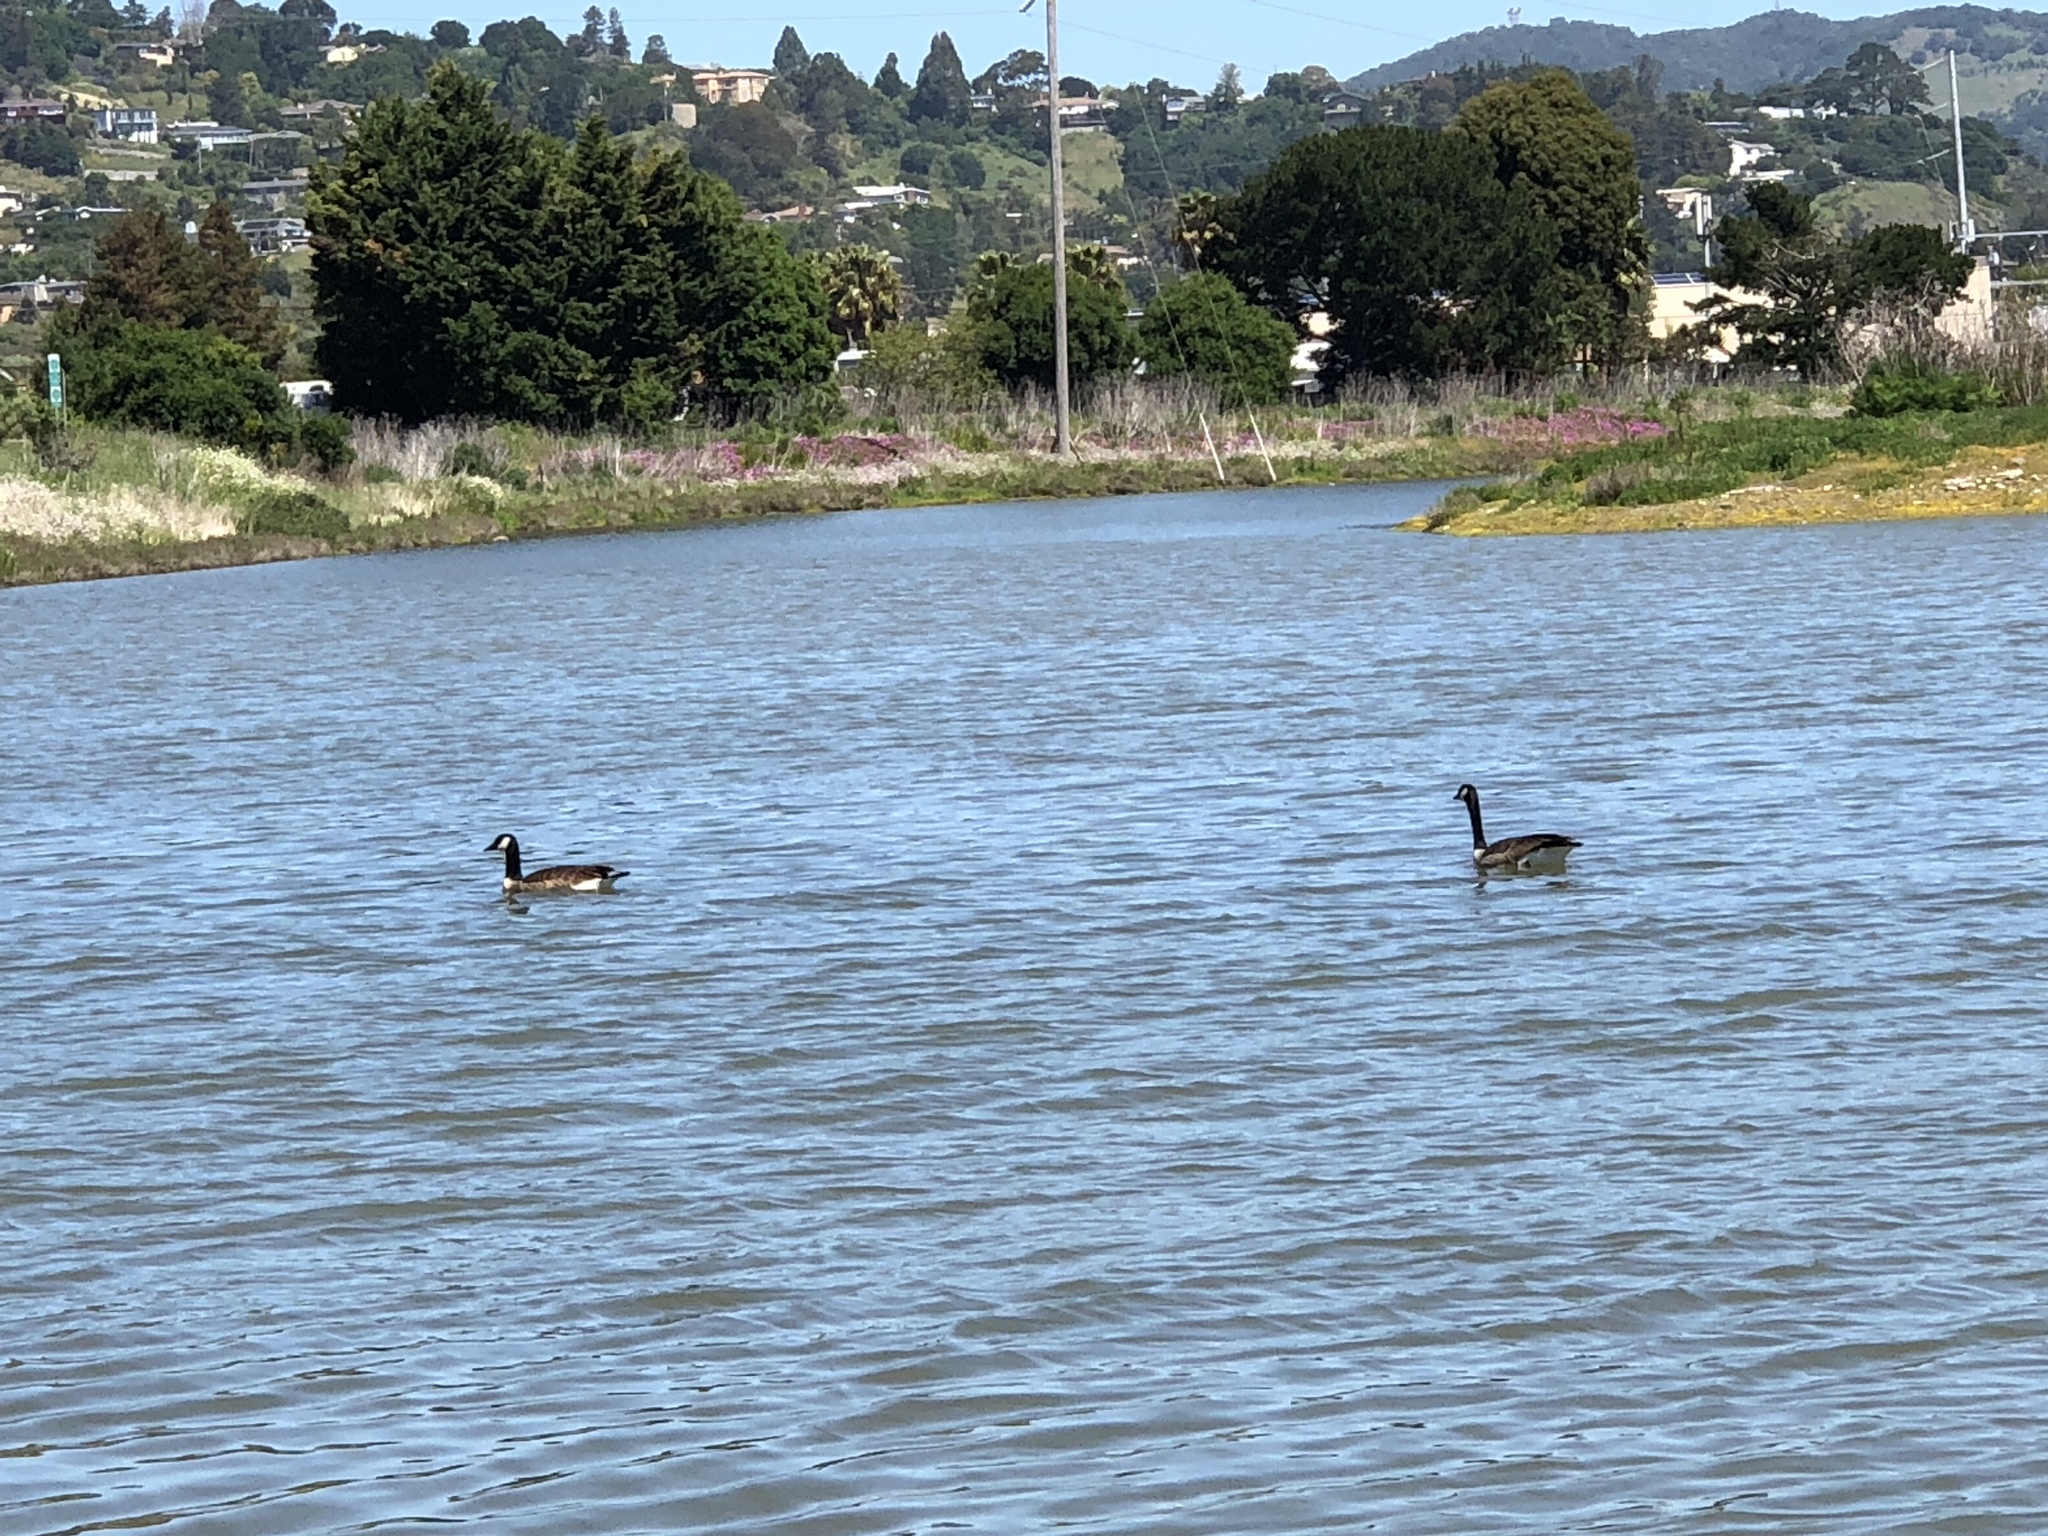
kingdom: Animalia
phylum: Chordata
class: Aves
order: Anseriformes
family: Anatidae
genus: Branta
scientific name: Branta canadensis
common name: Canada goose
